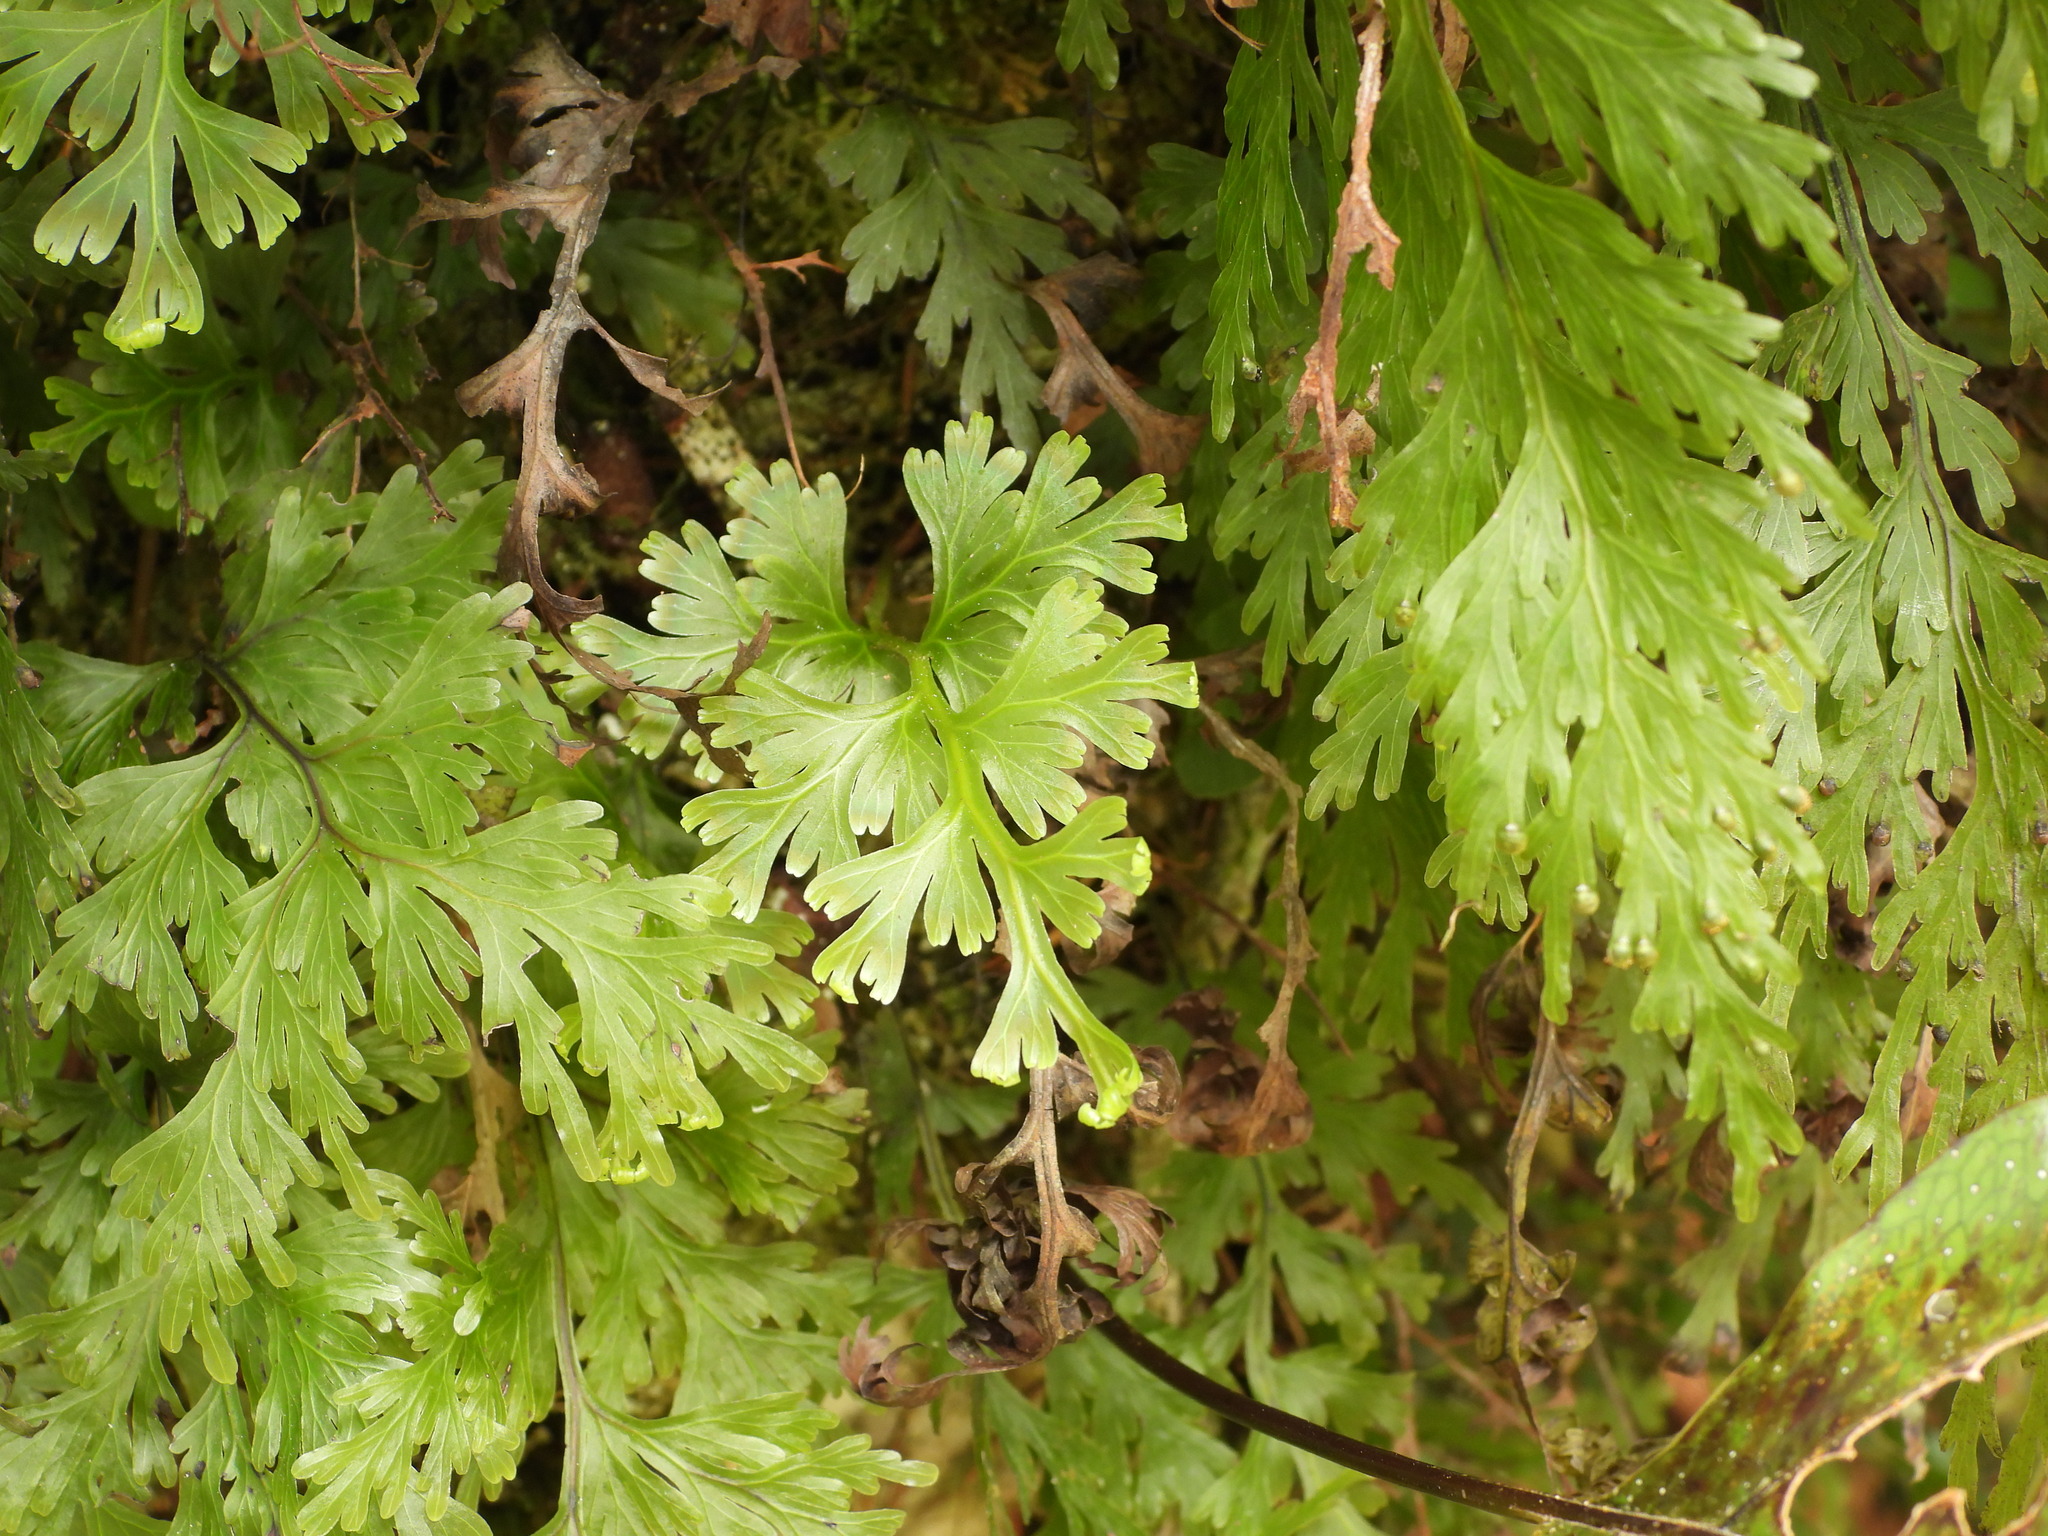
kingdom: Plantae
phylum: Tracheophyta
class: Polypodiopsida
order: Hymenophyllales
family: Hymenophyllaceae
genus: Hymenophyllum
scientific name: Hymenophyllum flabellatum
